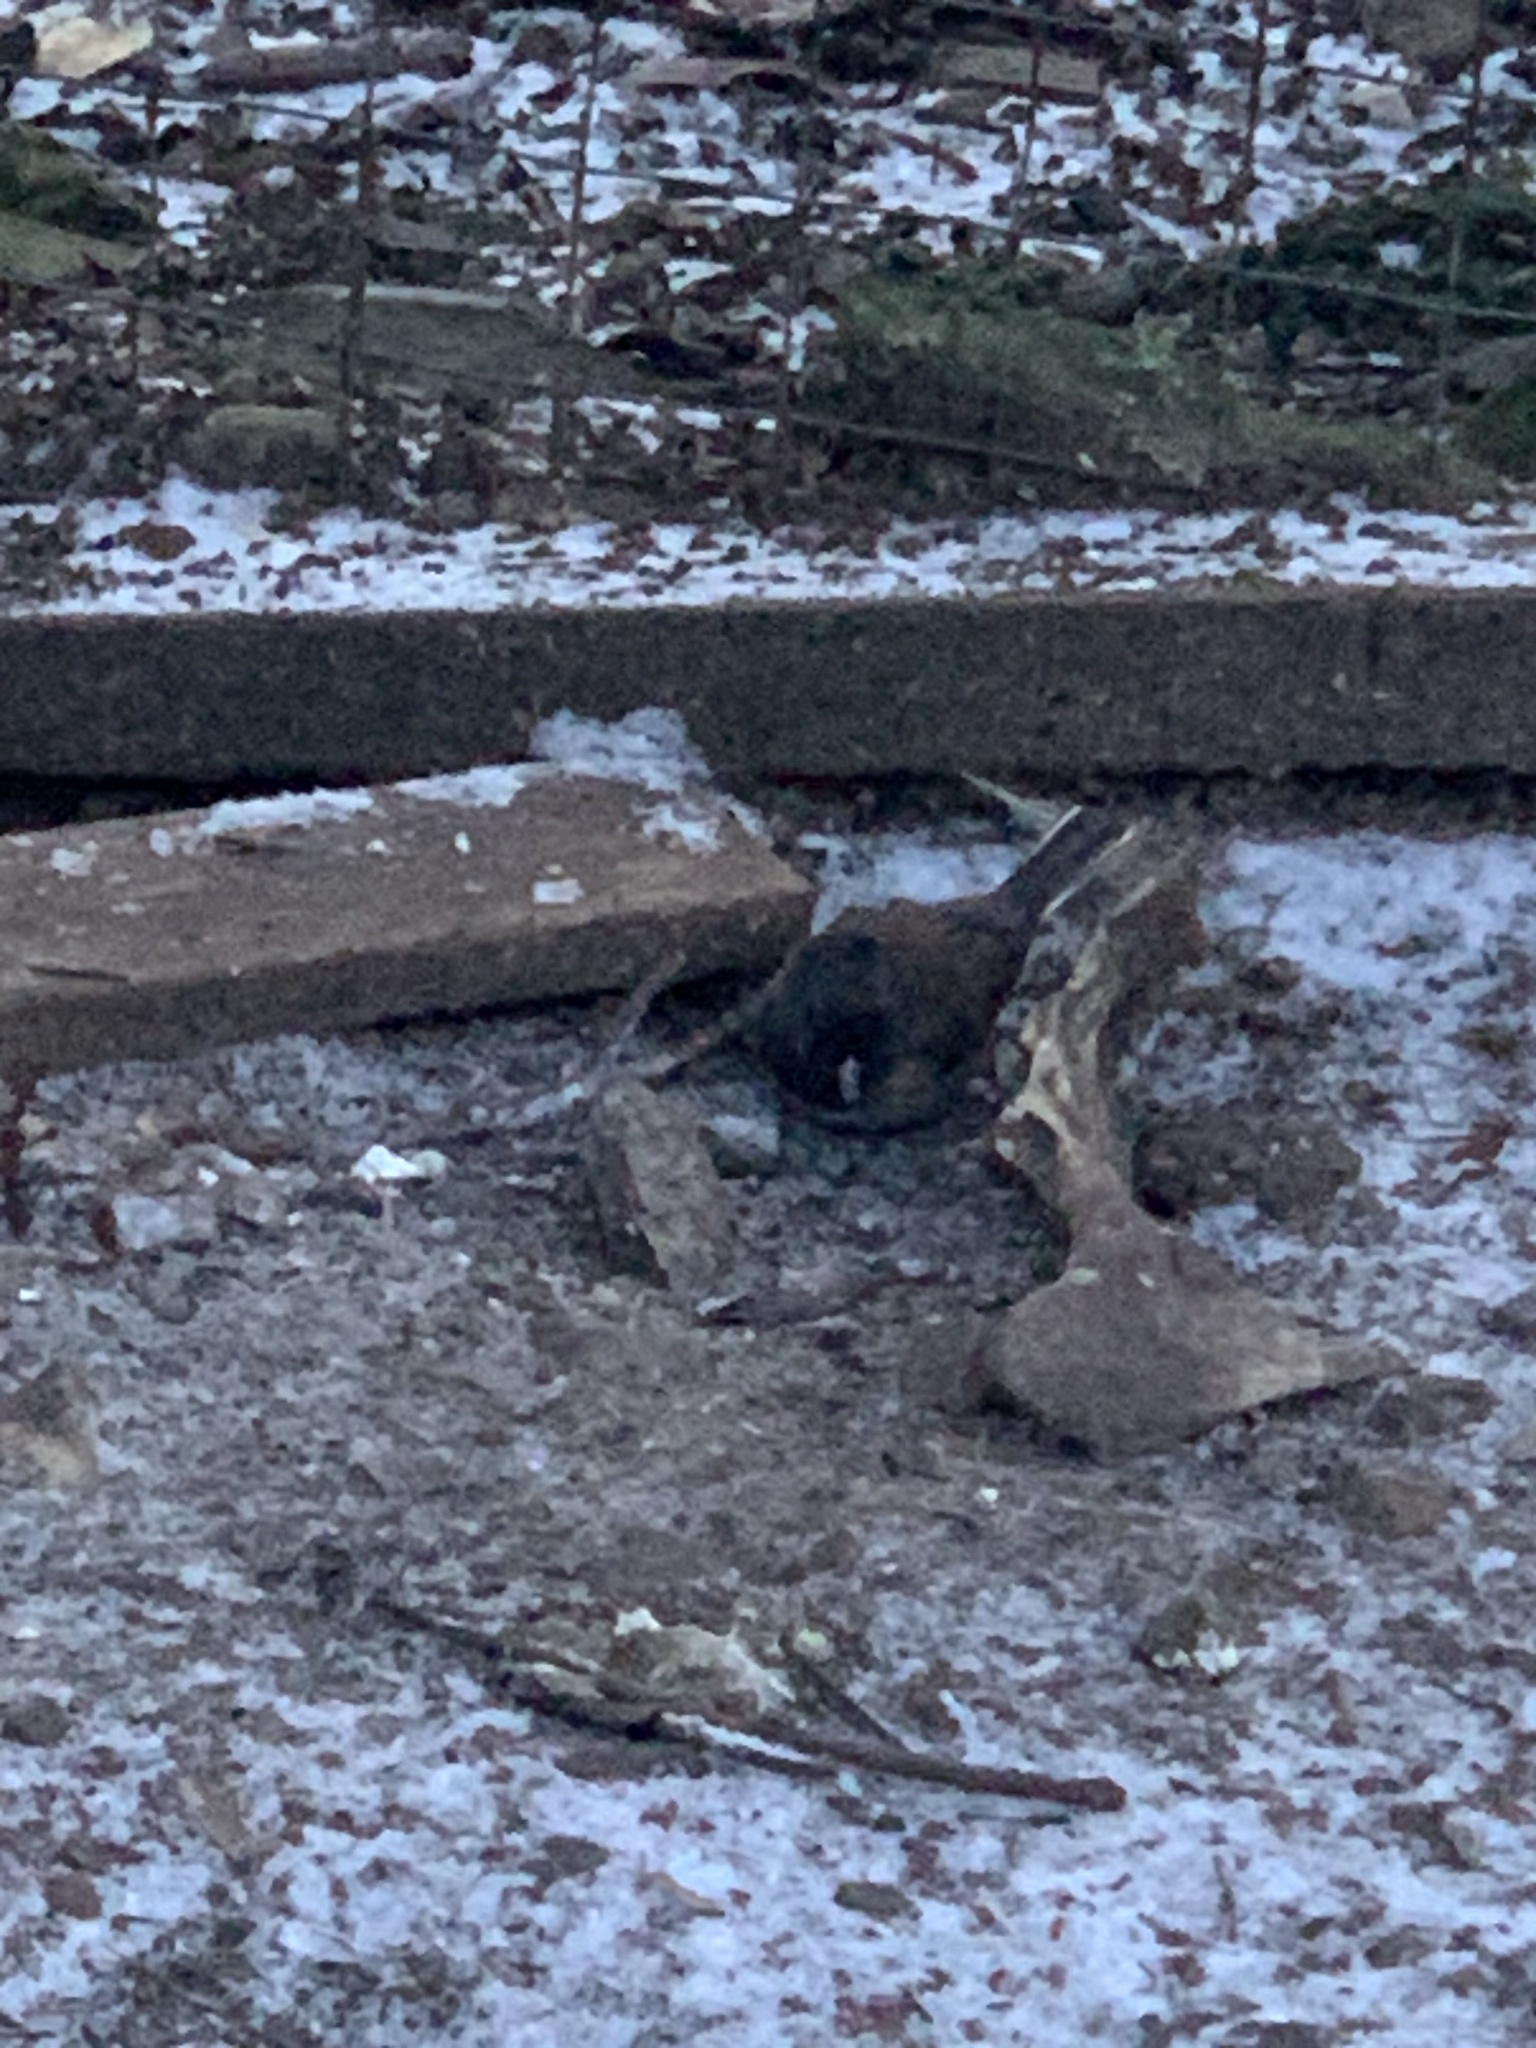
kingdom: Animalia
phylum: Chordata
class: Aves
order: Passeriformes
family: Passerellidae
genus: Junco
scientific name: Junco hyemalis
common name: Dark-eyed junco
